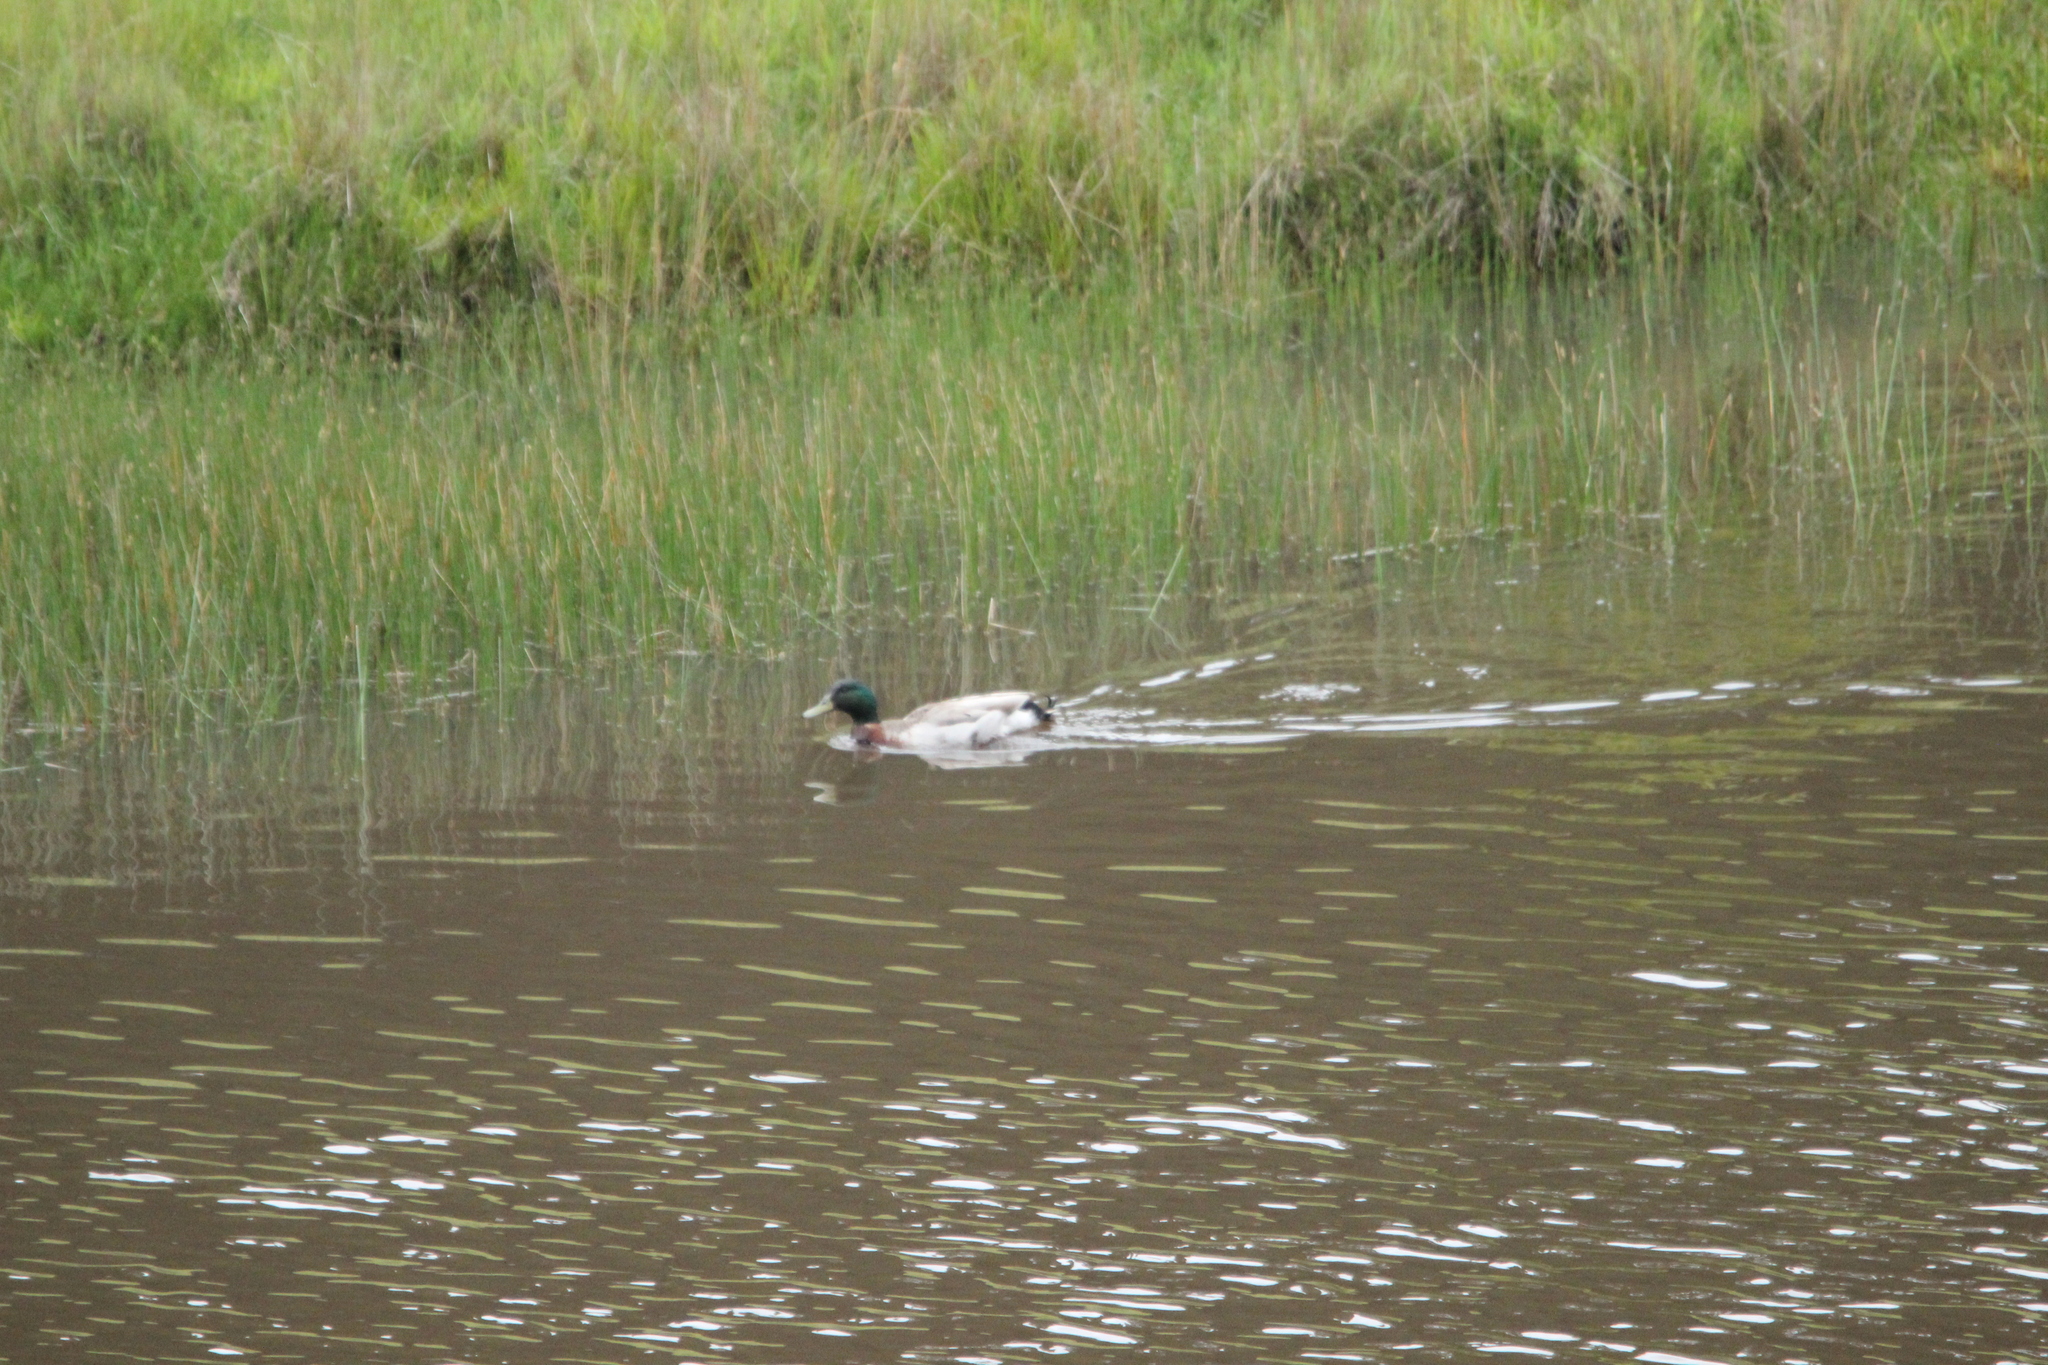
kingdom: Animalia
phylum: Chordata
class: Aves
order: Anseriformes
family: Anatidae
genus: Anas
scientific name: Anas platyrhynchos
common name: Mallard
